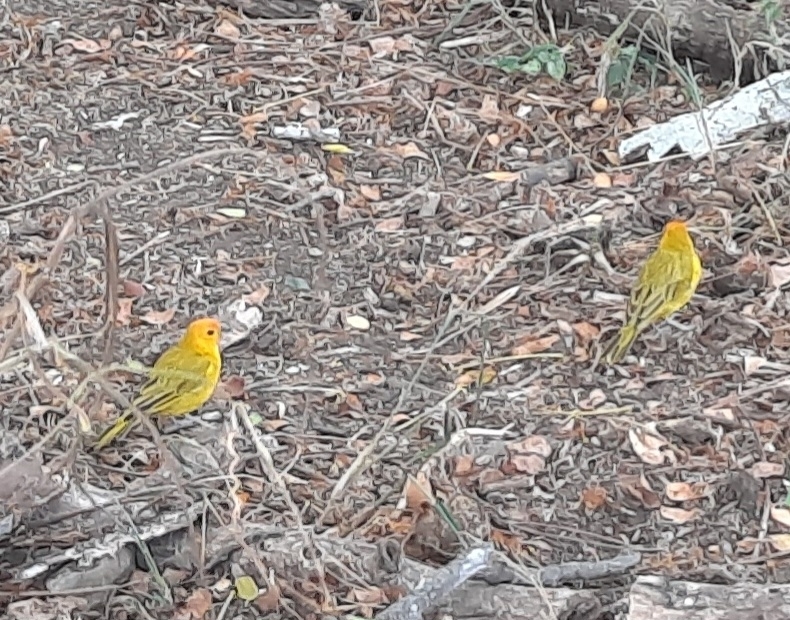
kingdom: Animalia
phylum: Chordata
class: Aves
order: Passeriformes
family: Thraupidae
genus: Sicalis
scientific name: Sicalis flaveola
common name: Saffron finch
